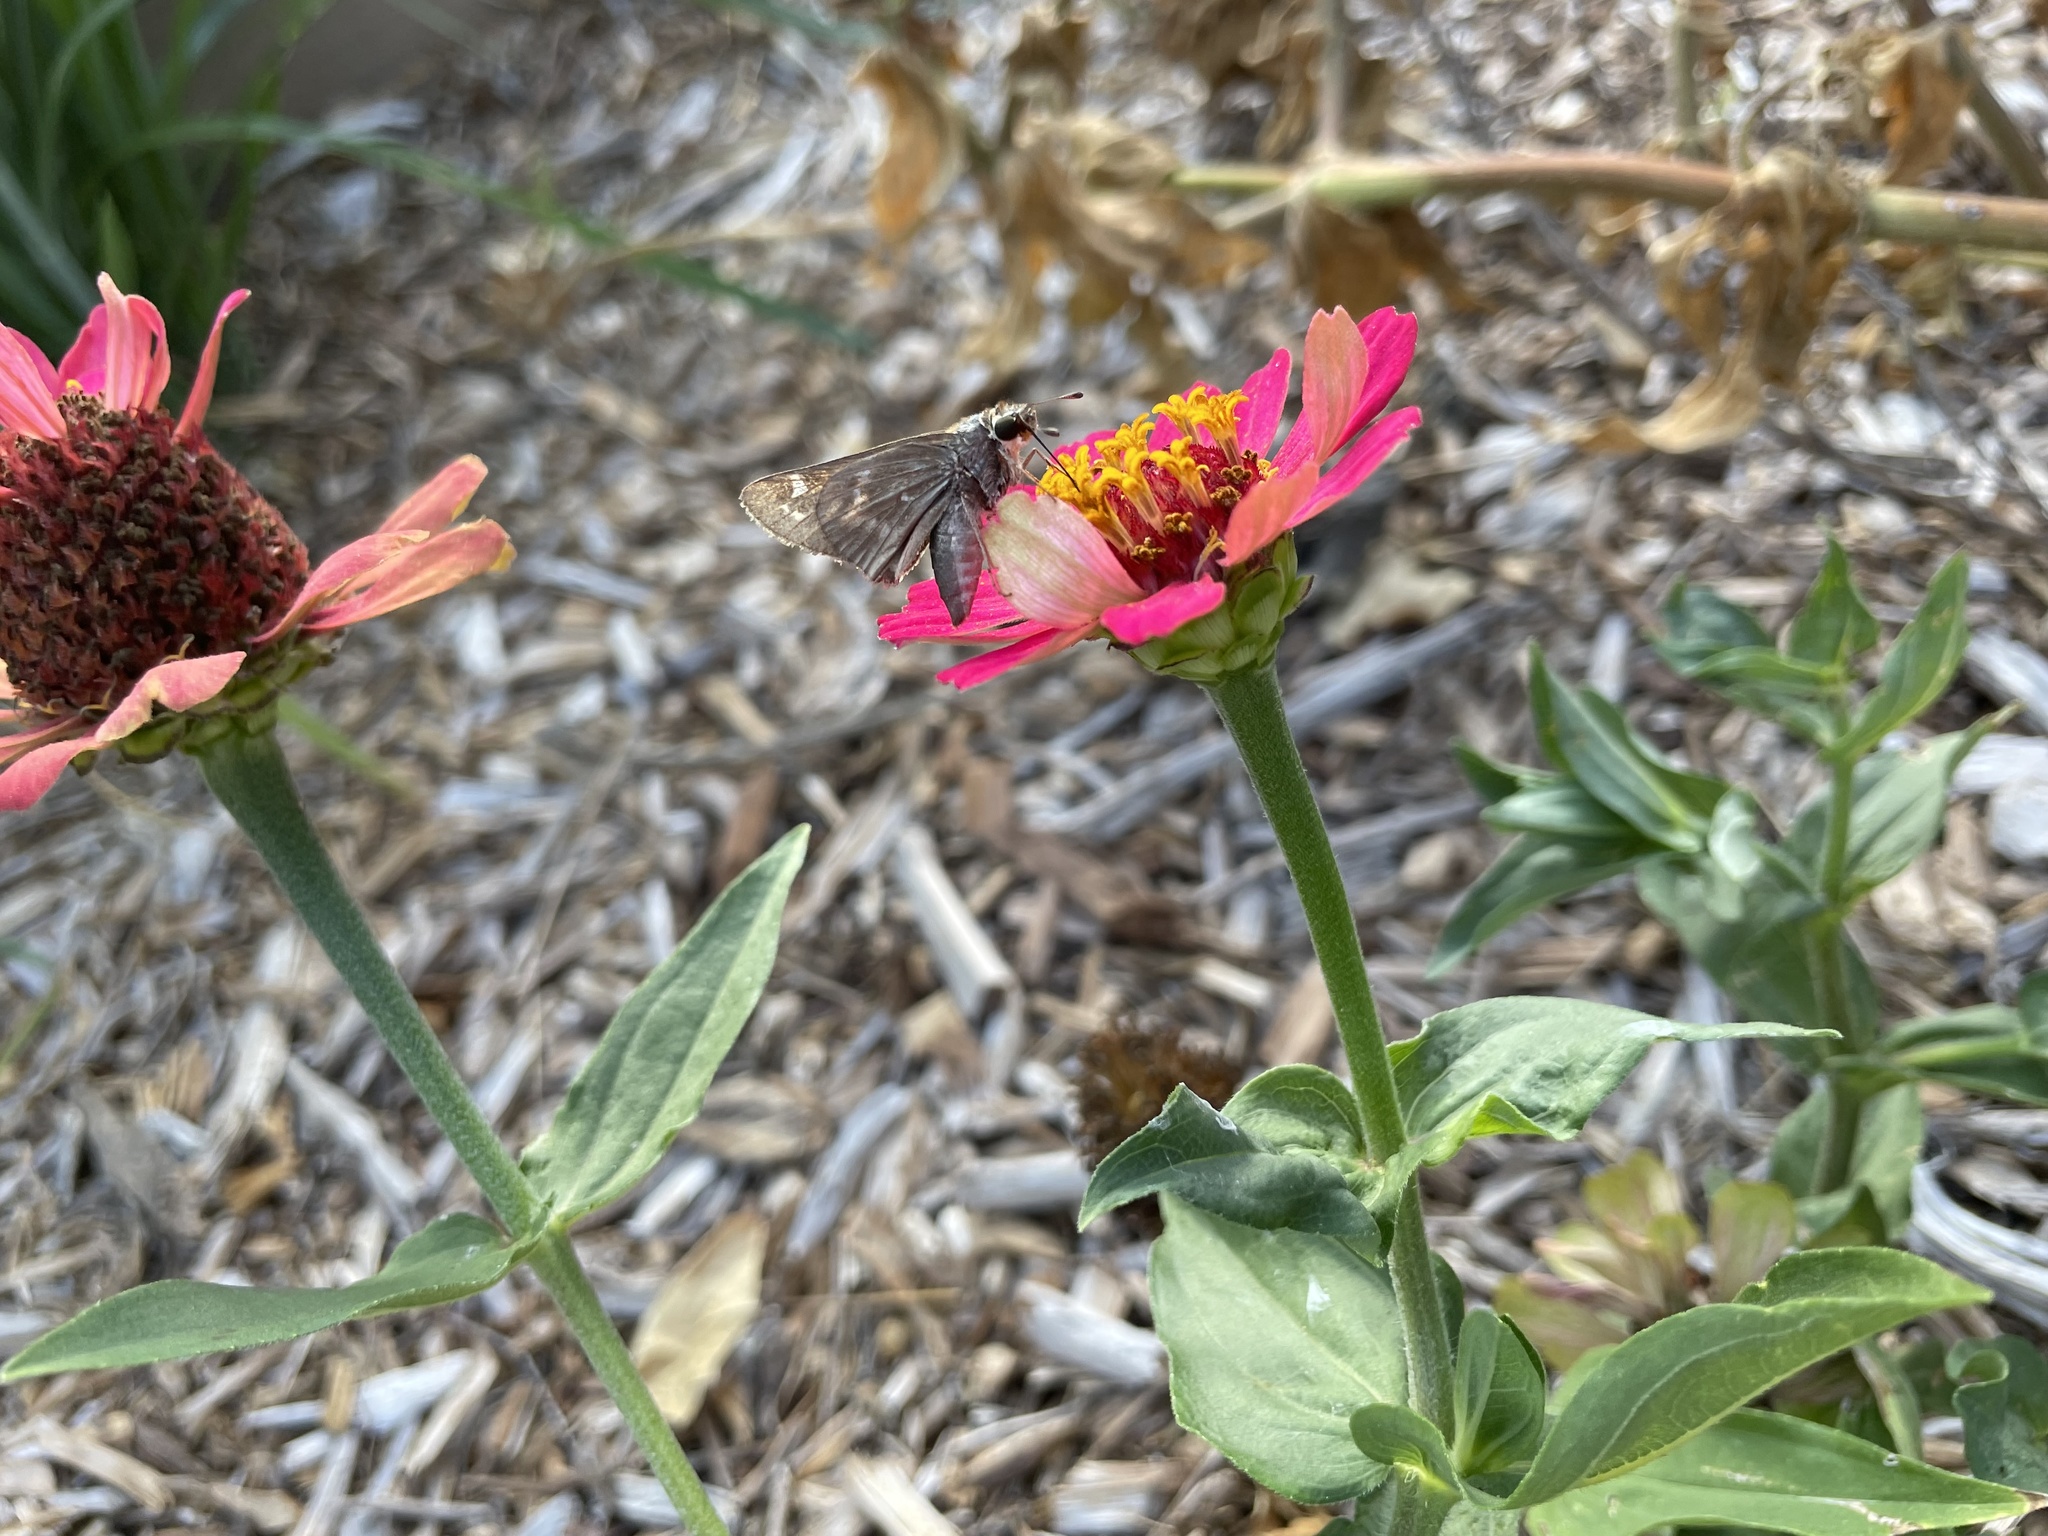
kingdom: Animalia
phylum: Arthropoda
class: Insecta
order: Lepidoptera
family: Hesperiidae
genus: Atalopedes
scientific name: Atalopedes
